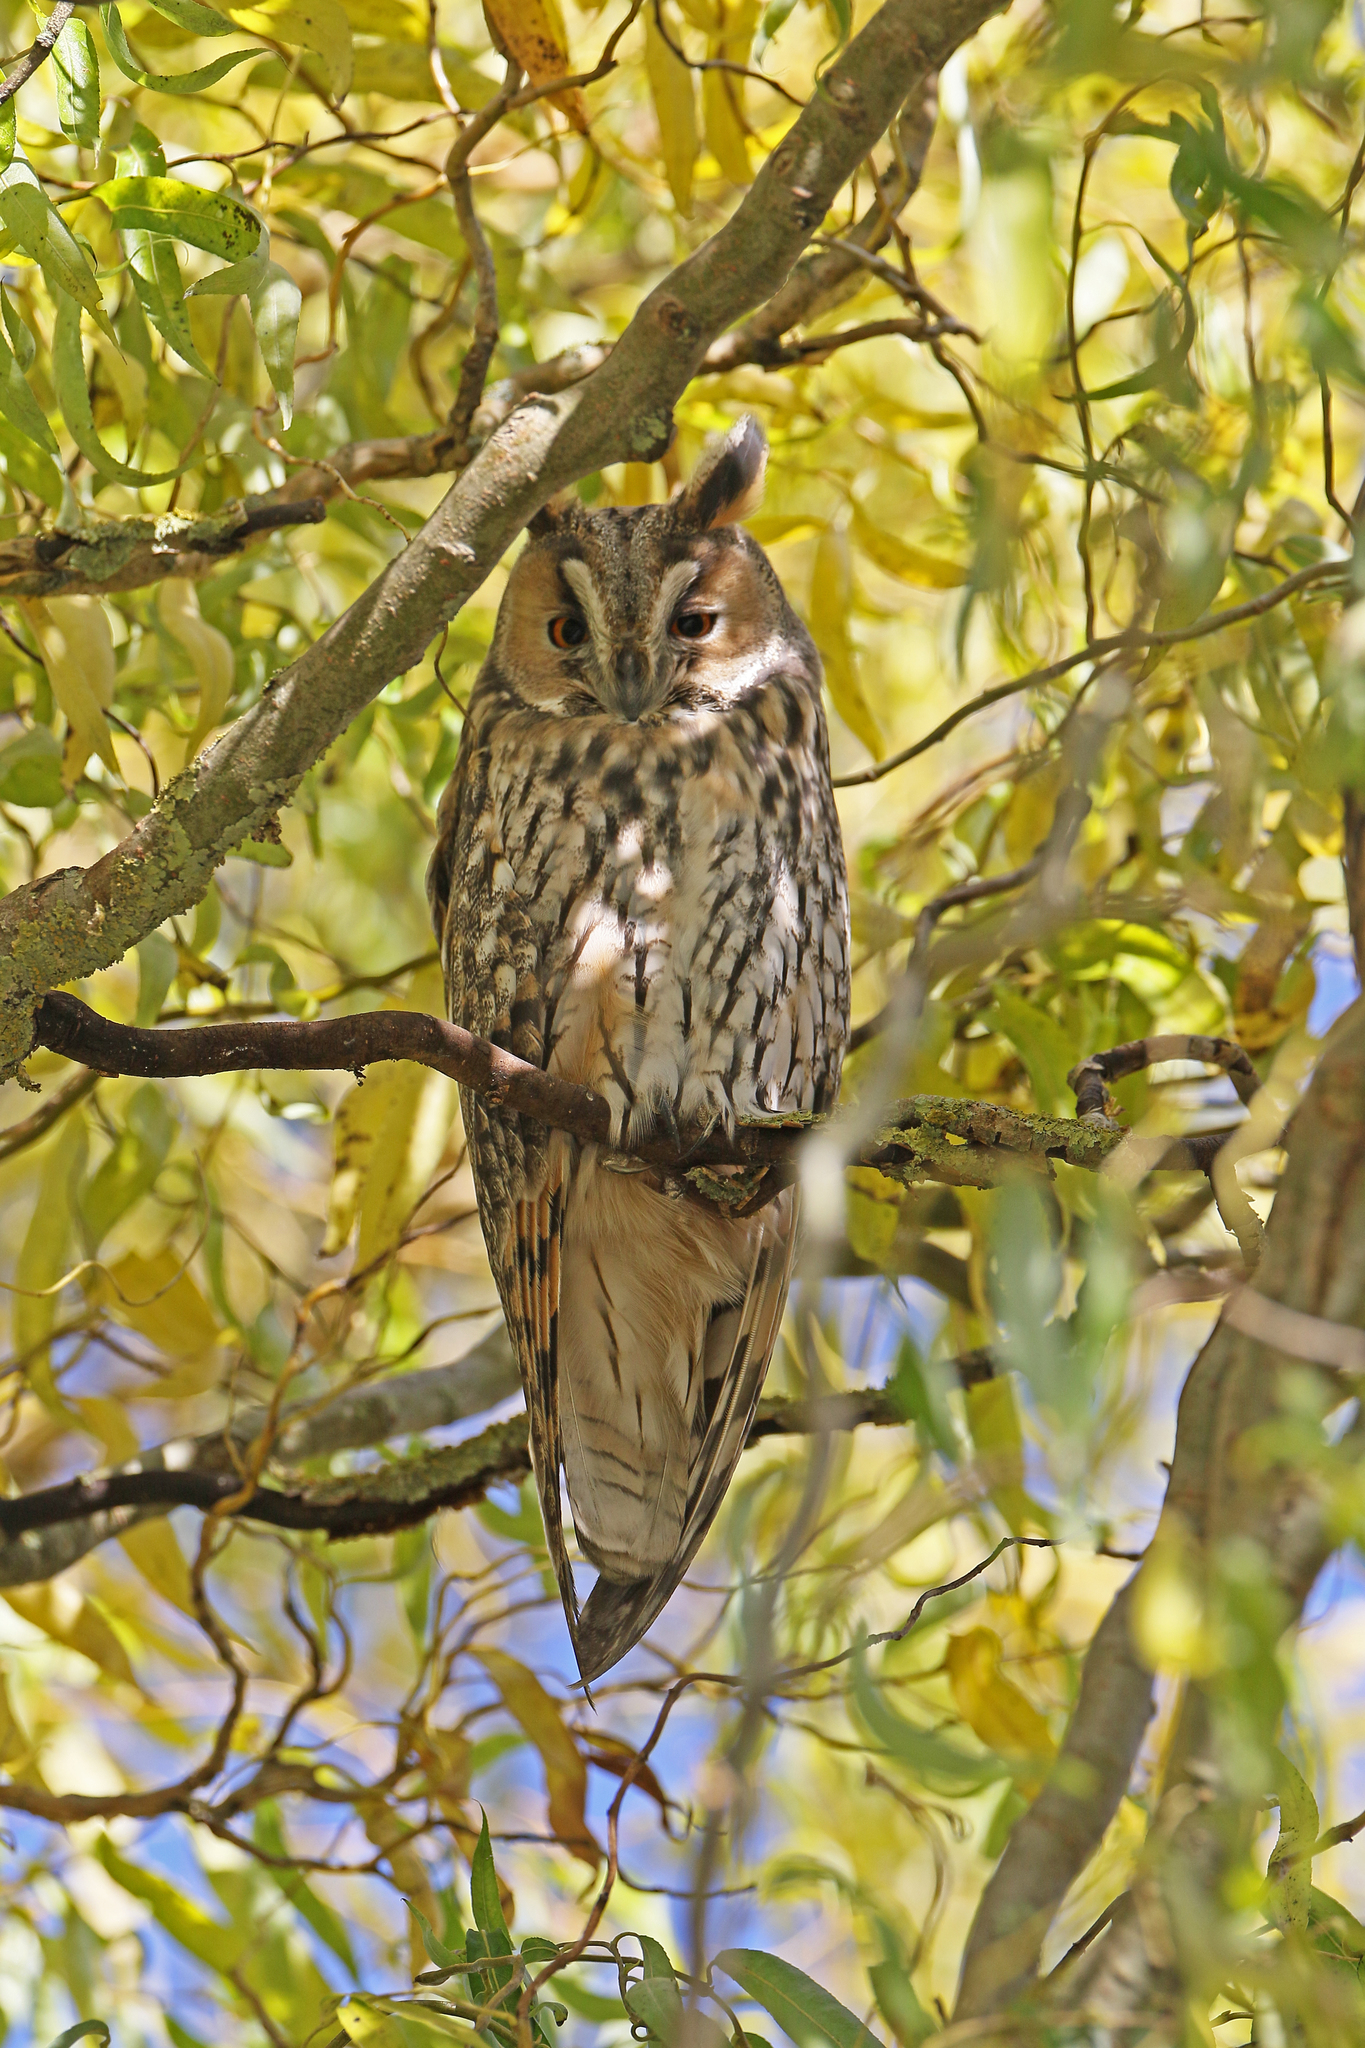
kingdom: Animalia
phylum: Chordata
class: Aves
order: Strigiformes
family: Strigidae
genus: Asio
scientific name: Asio otus
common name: Long-eared owl
